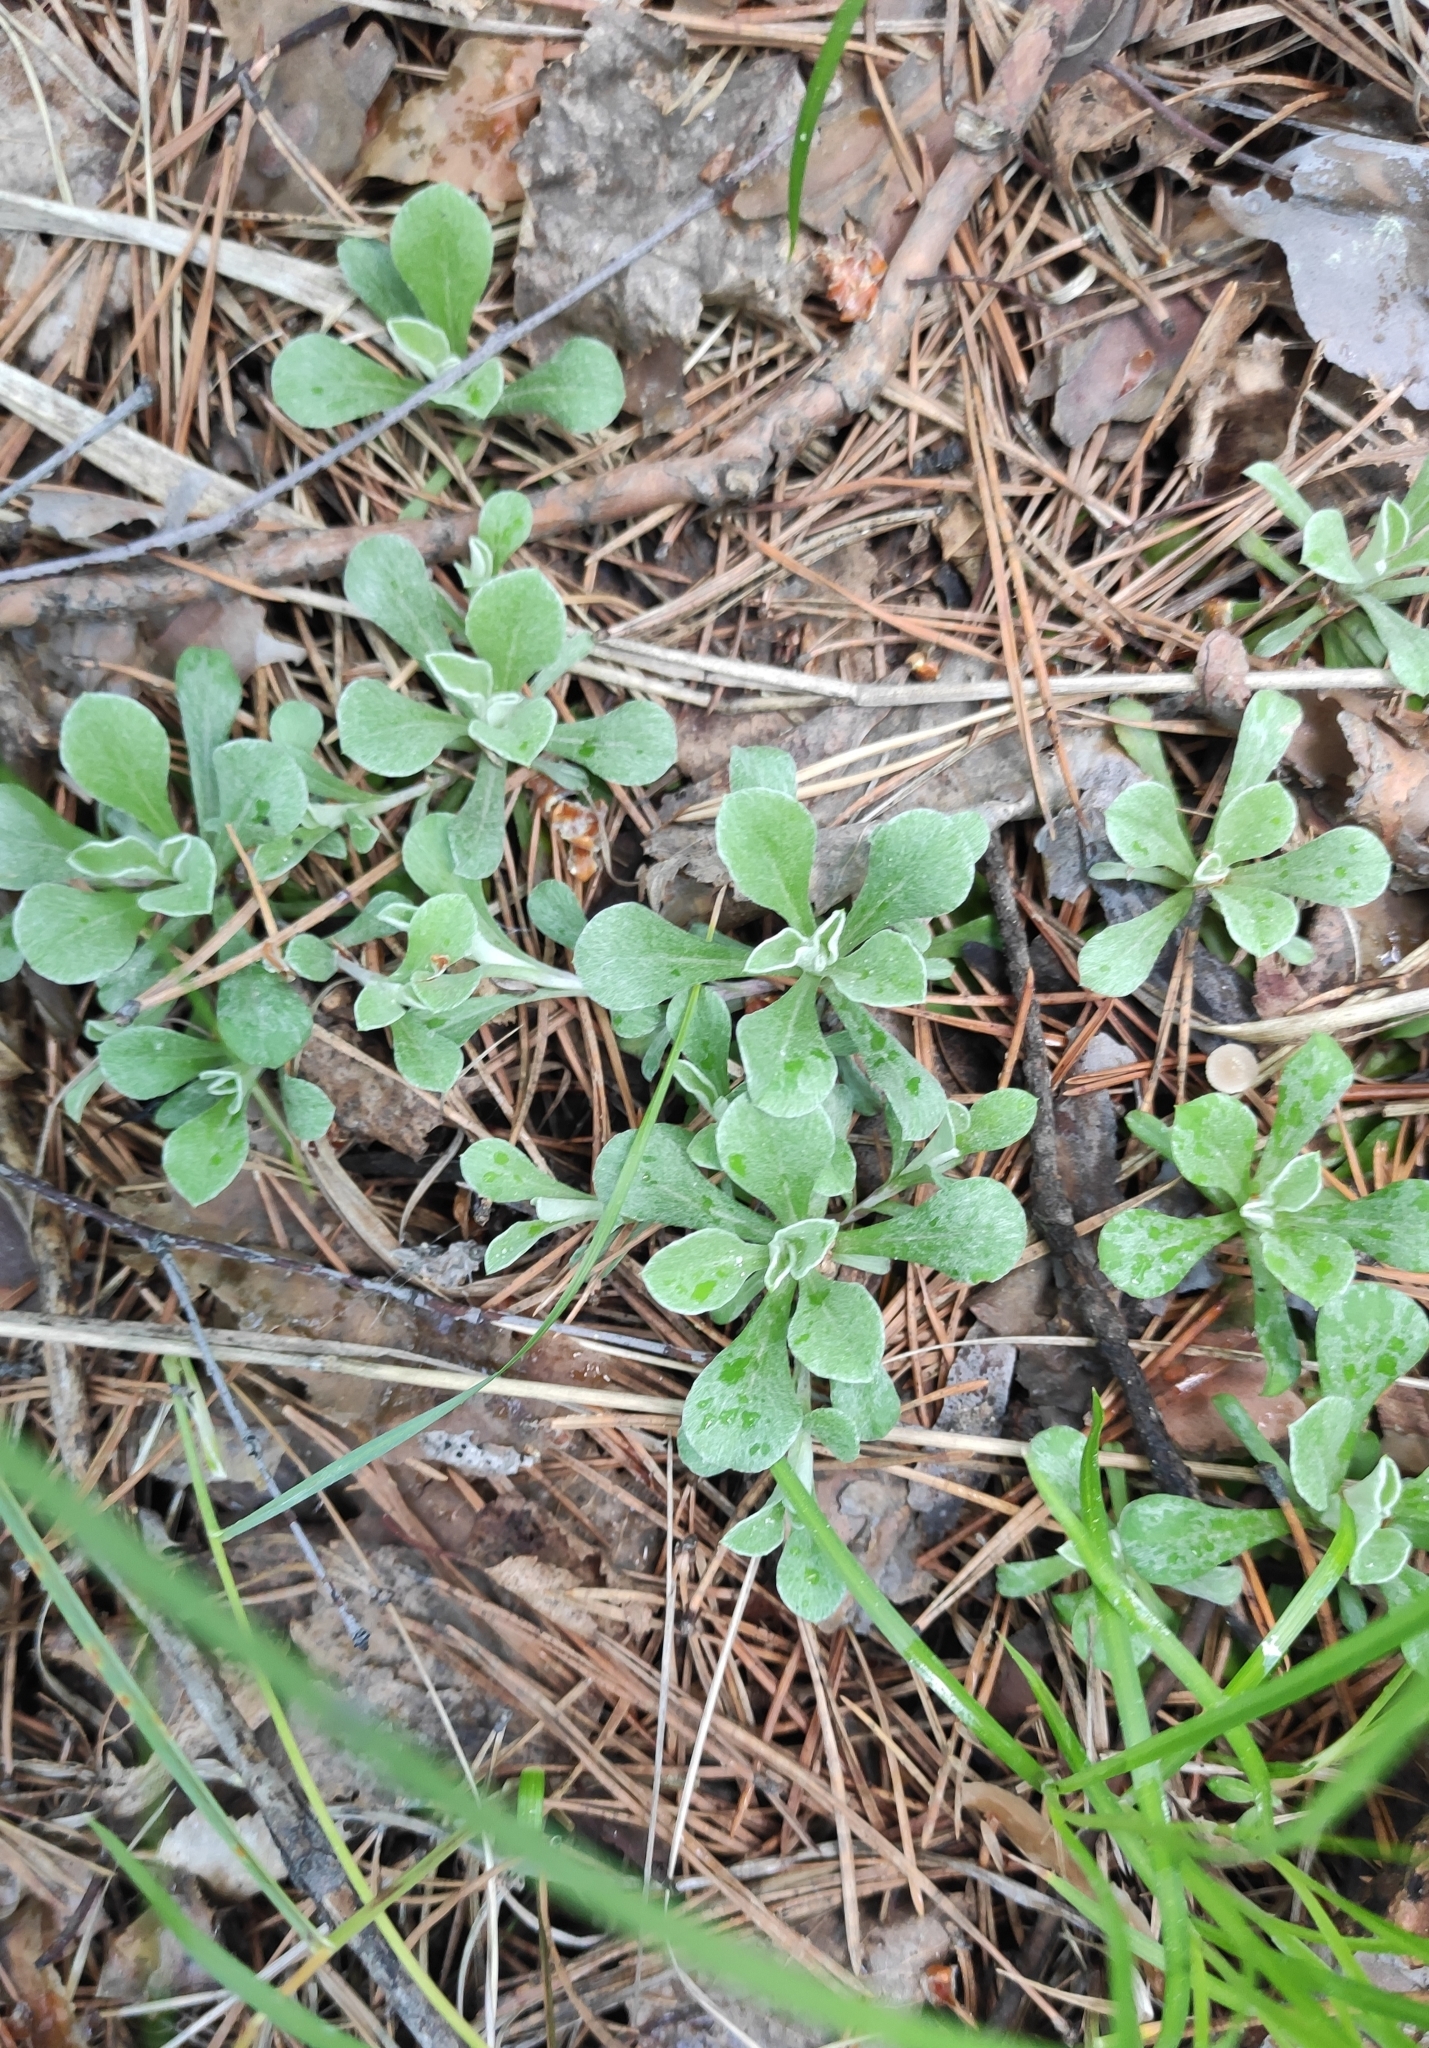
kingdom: Plantae
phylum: Tracheophyta
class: Magnoliopsida
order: Asterales
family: Asteraceae
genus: Antennaria
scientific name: Antennaria dioica
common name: Mountain everlasting
